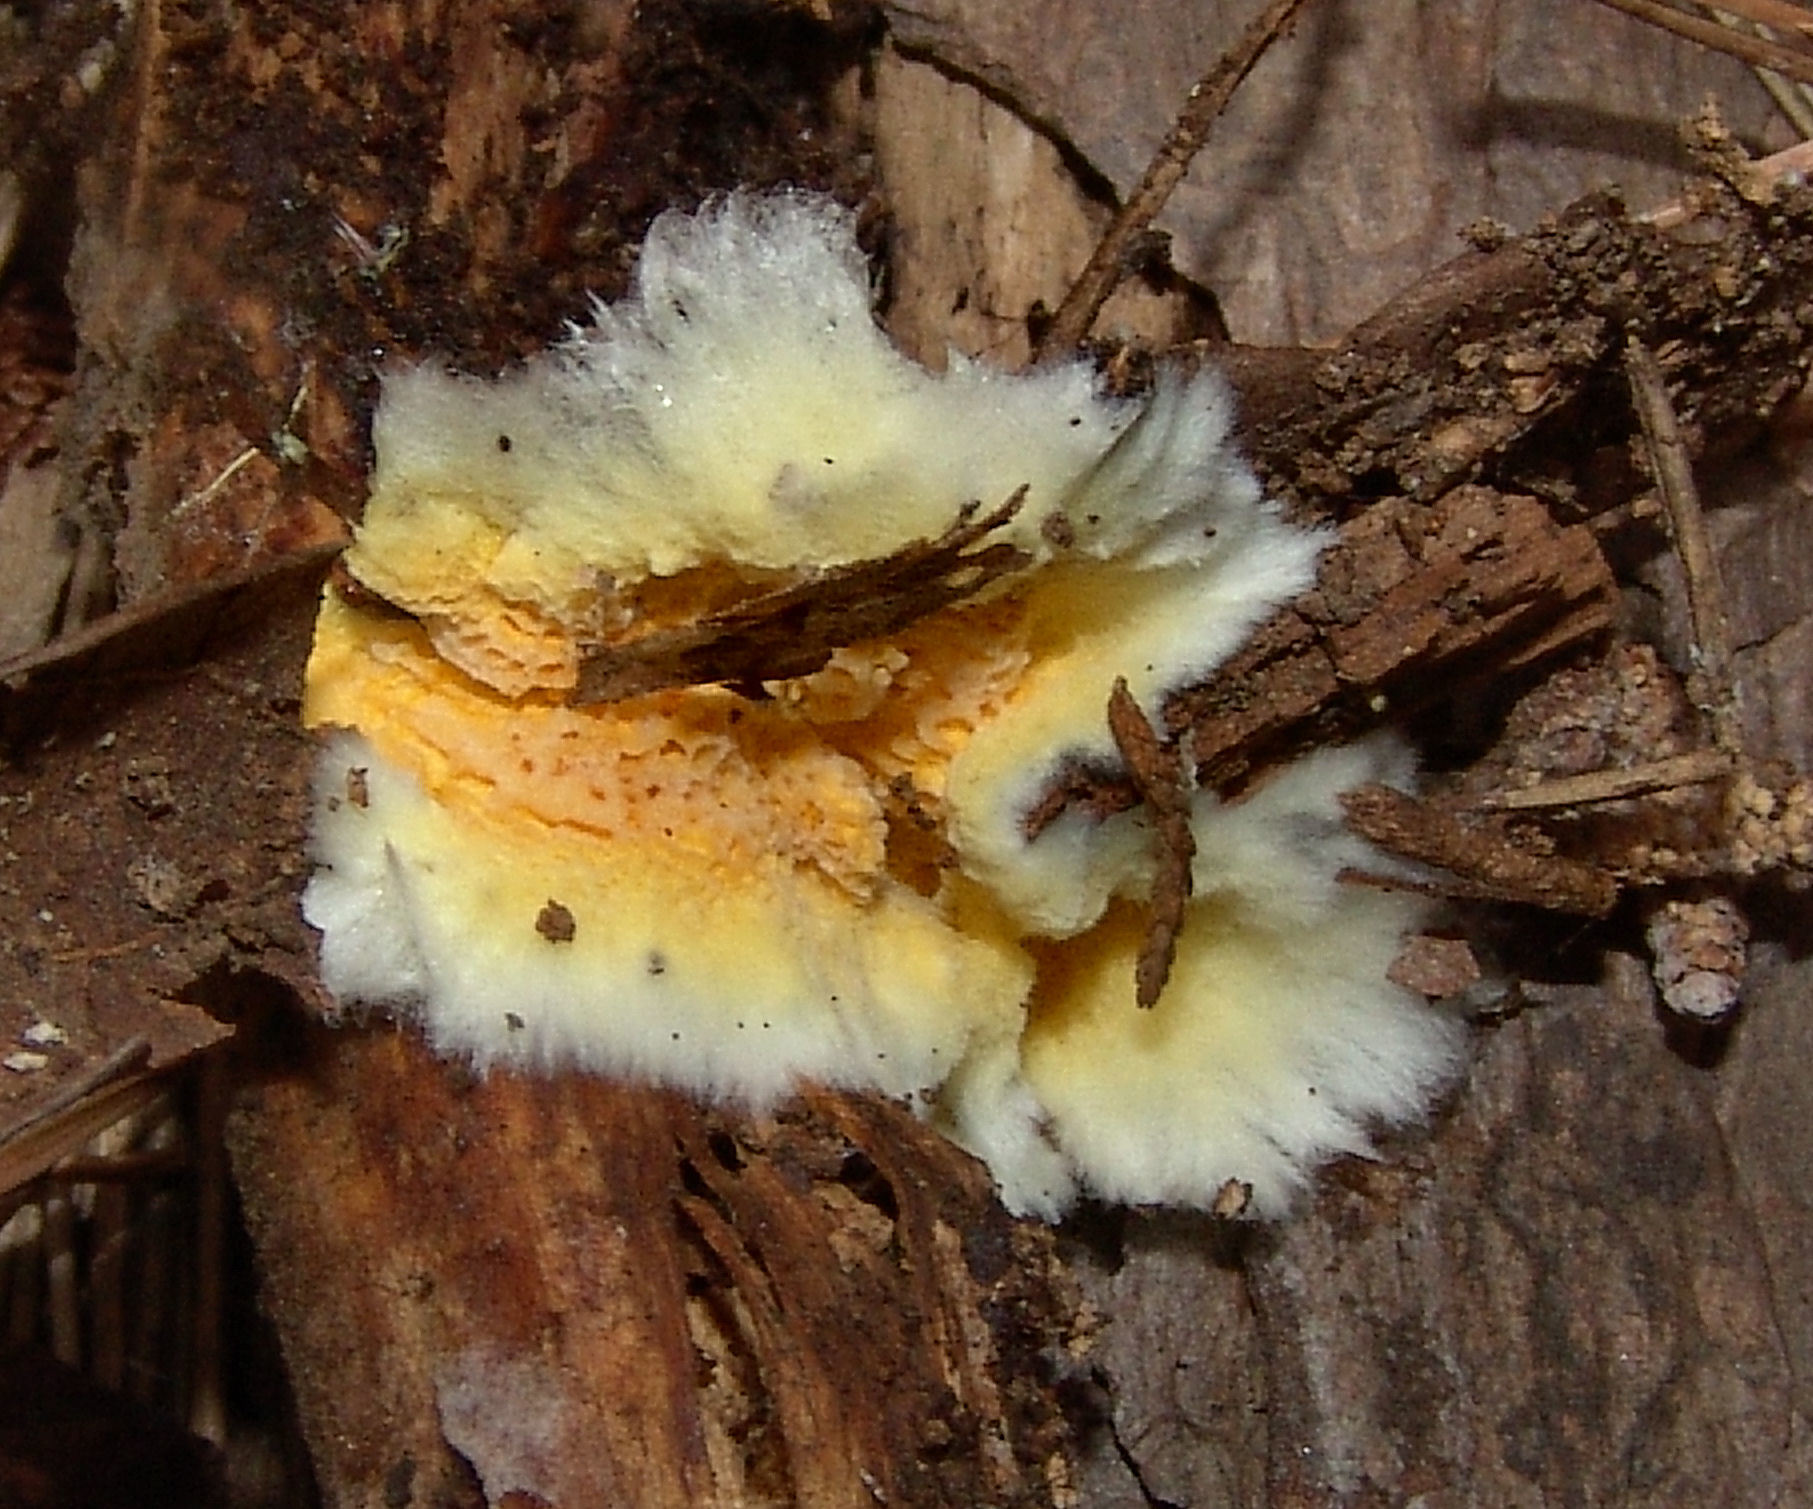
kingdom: Fungi
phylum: Basidiomycota
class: Agaricomycetes
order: Polyporales
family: Fibroporiaceae
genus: Fibroporia
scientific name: Fibroporia radiculosa
